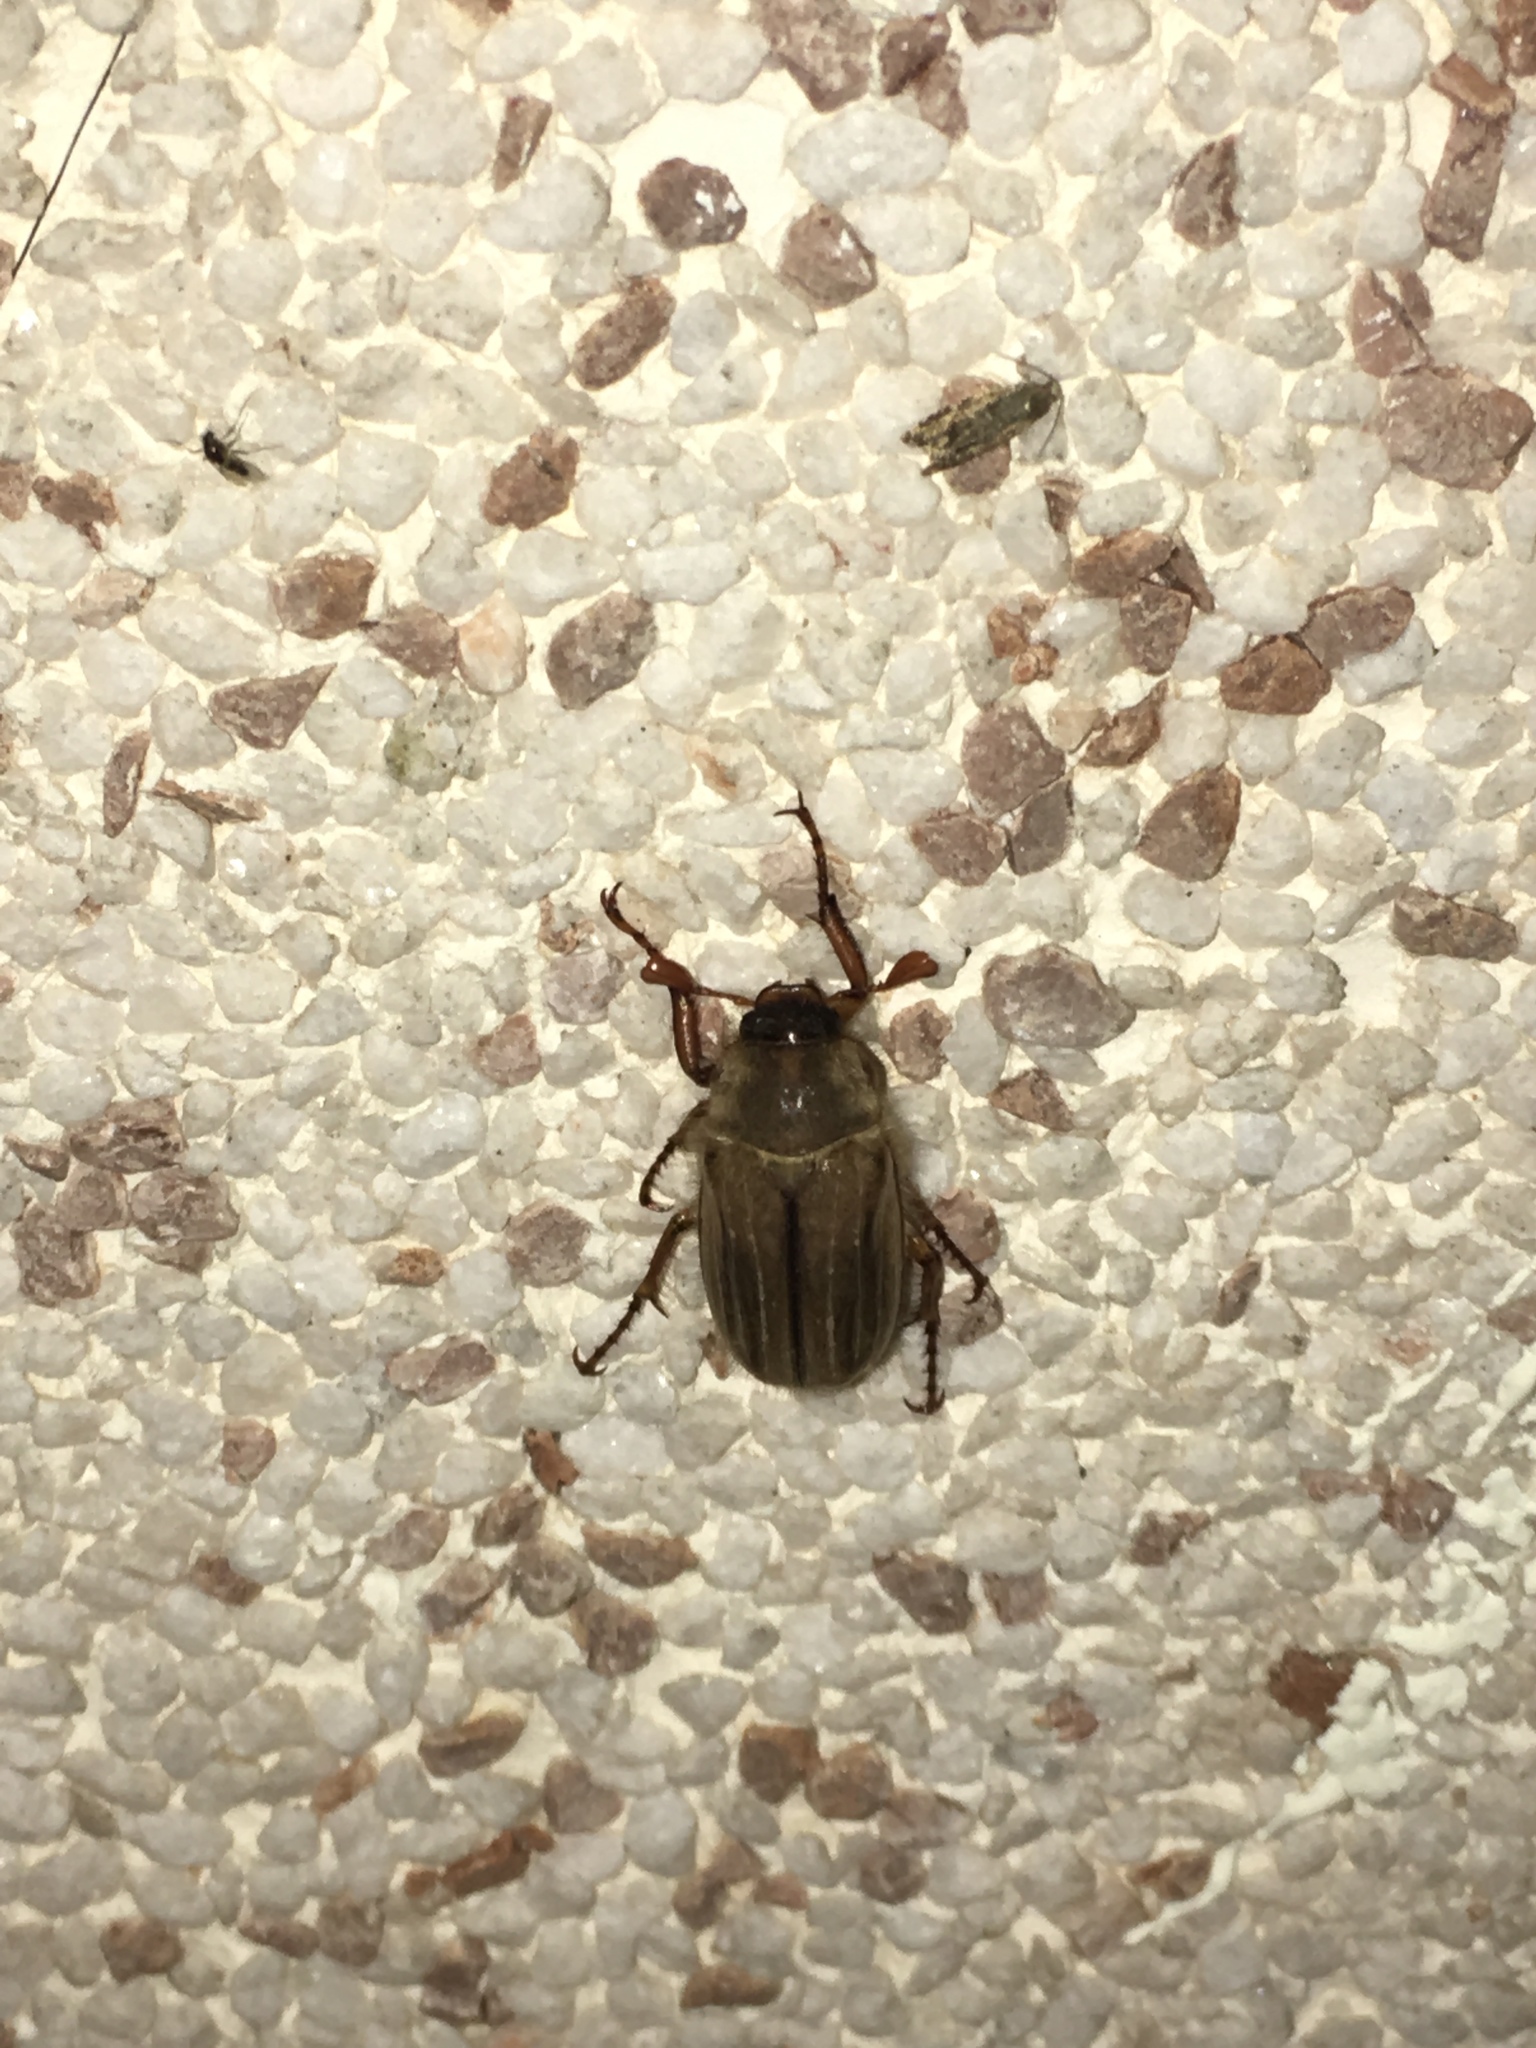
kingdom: Animalia
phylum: Arthropoda
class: Insecta
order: Coleoptera
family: Scarabaeidae
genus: Amphimallon
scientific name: Amphimallon solstitiale
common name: Summer chafer
